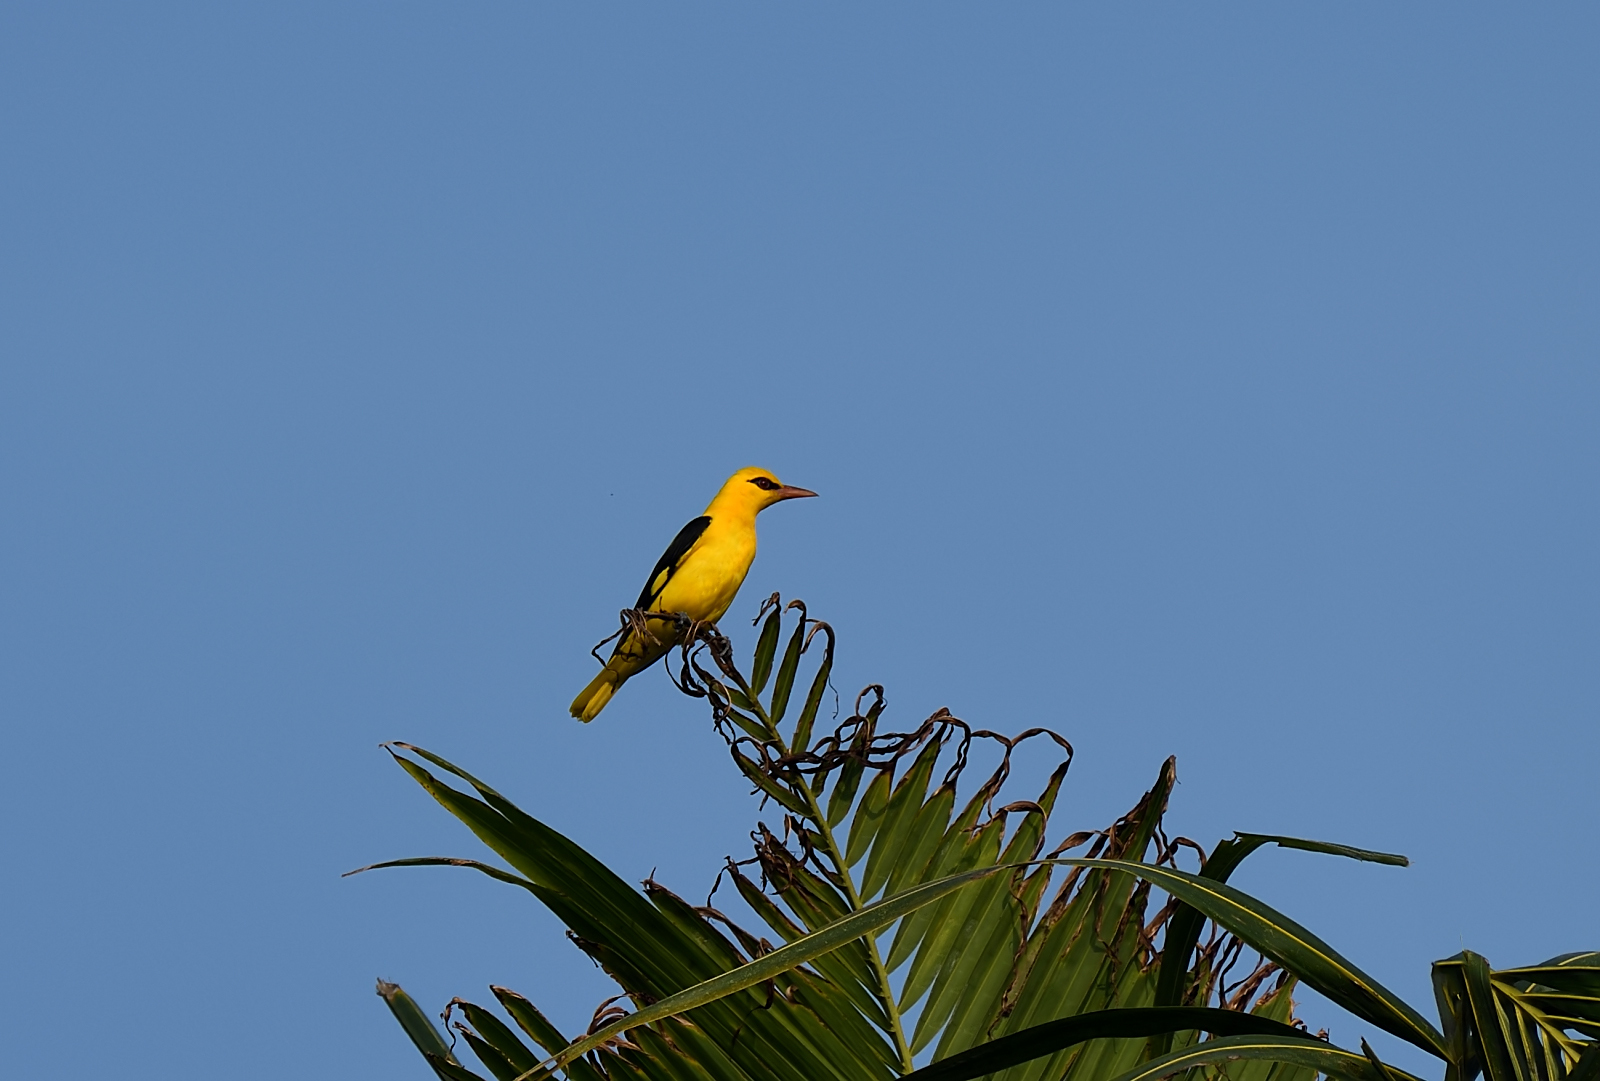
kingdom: Animalia
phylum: Chordata
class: Aves
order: Passeriformes
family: Oriolidae
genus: Oriolus
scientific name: Oriolus kundoo
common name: Indian golden oriole
